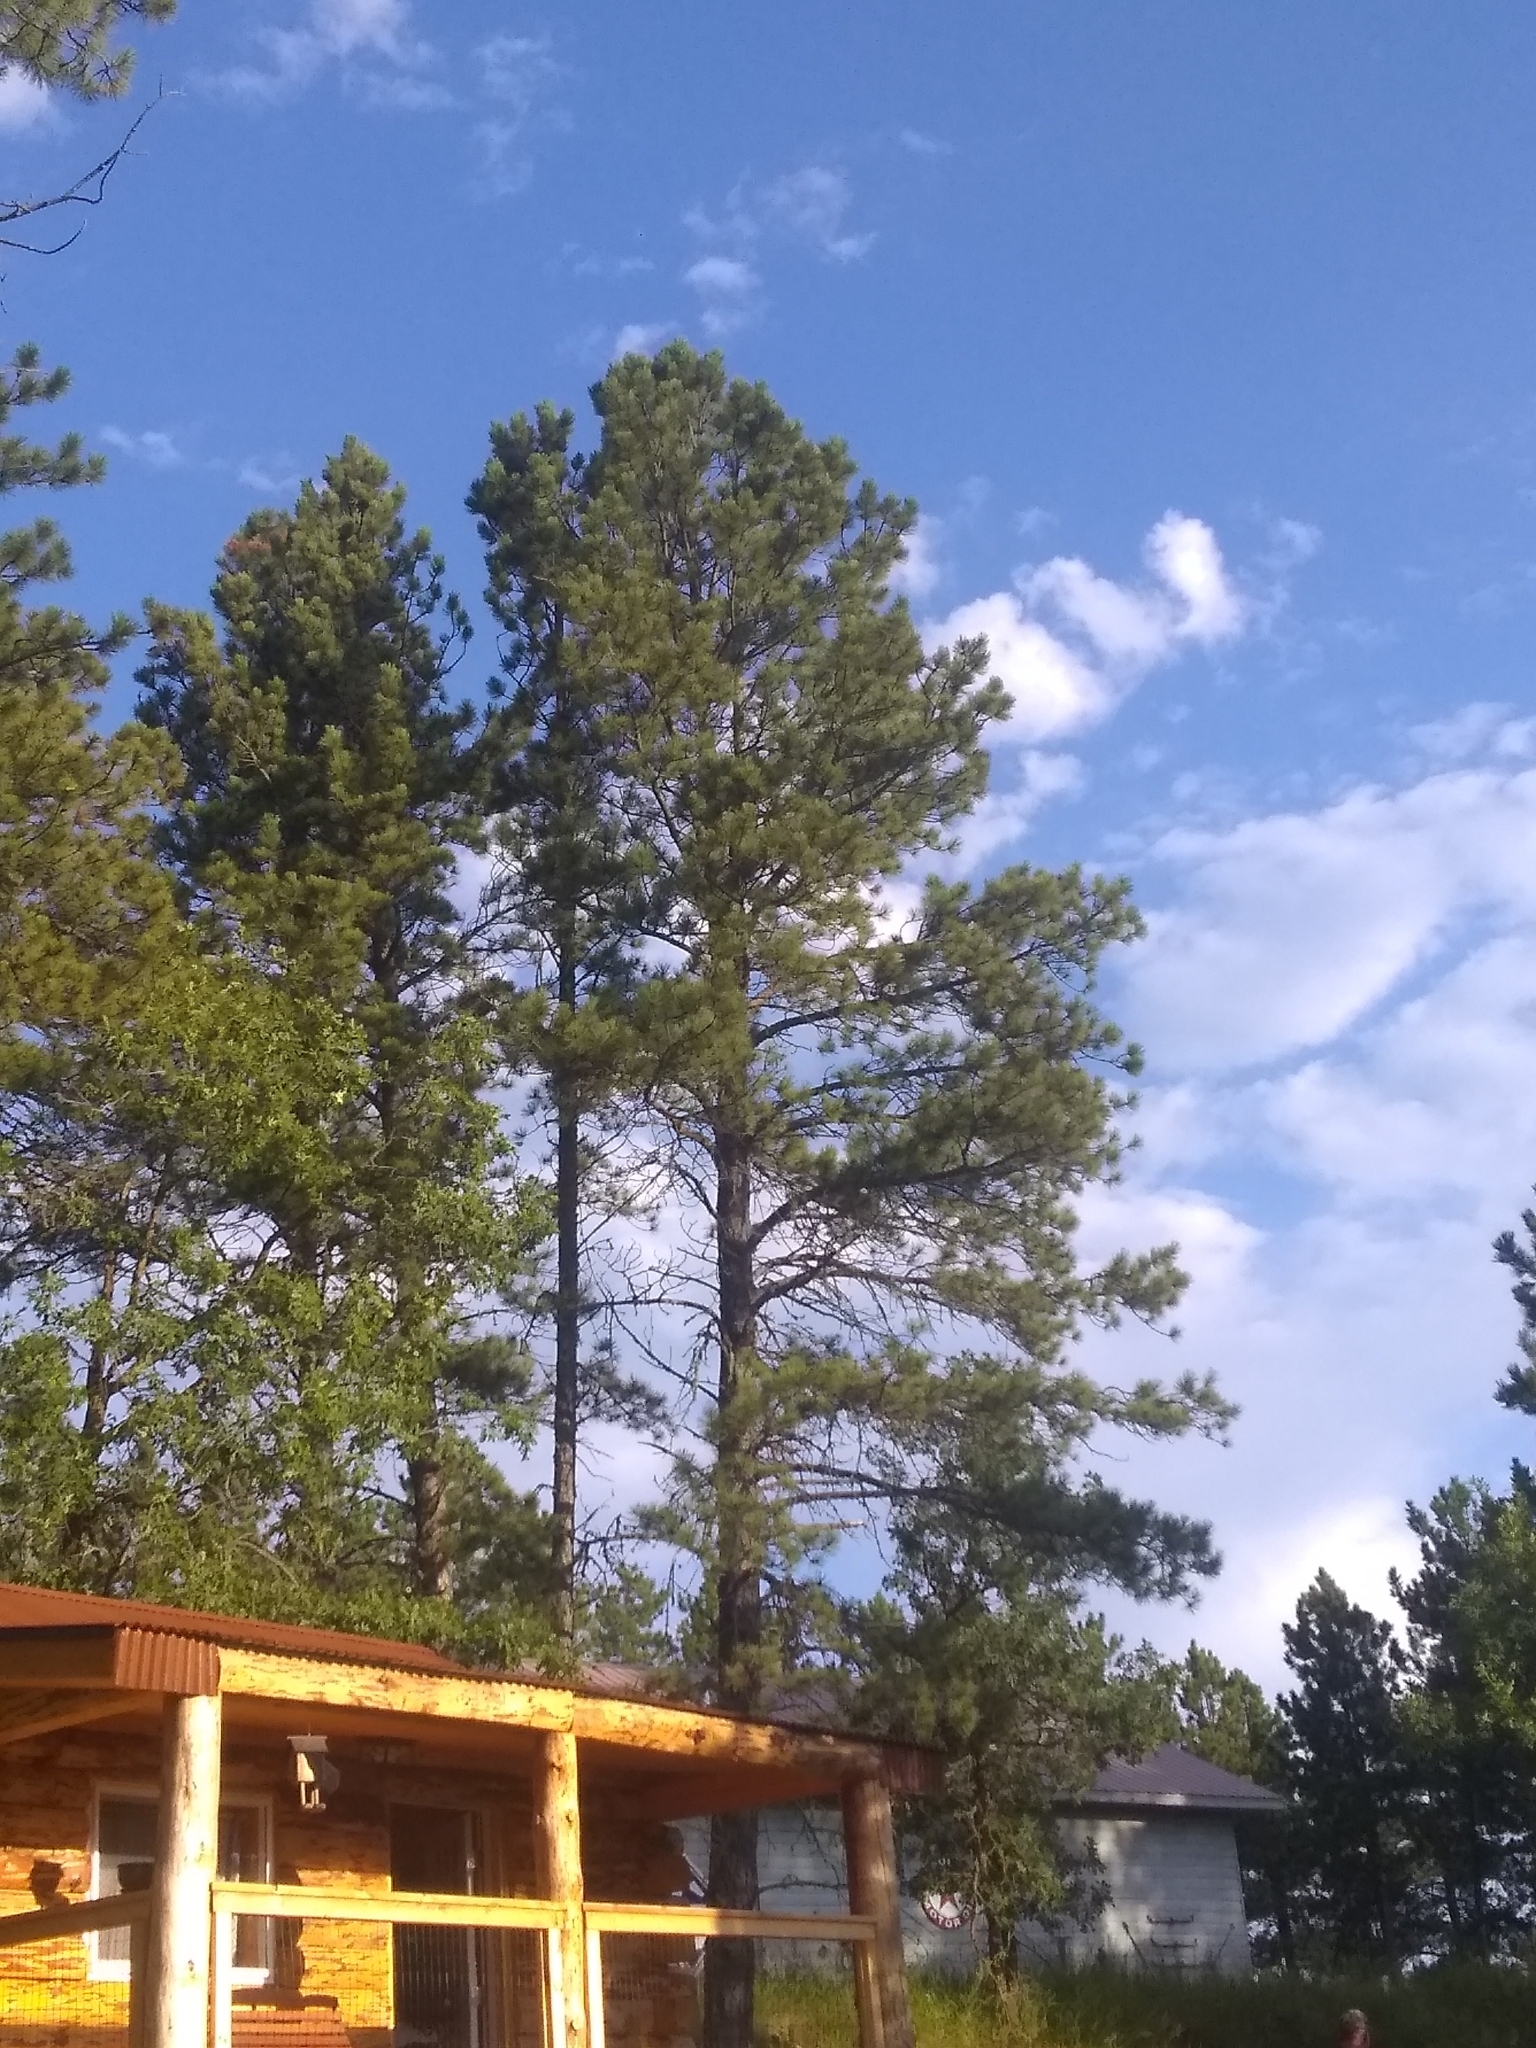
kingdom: Plantae
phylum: Tracheophyta
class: Pinopsida
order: Pinales
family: Pinaceae
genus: Pinus
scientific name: Pinus ponderosa
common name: Western yellow-pine
